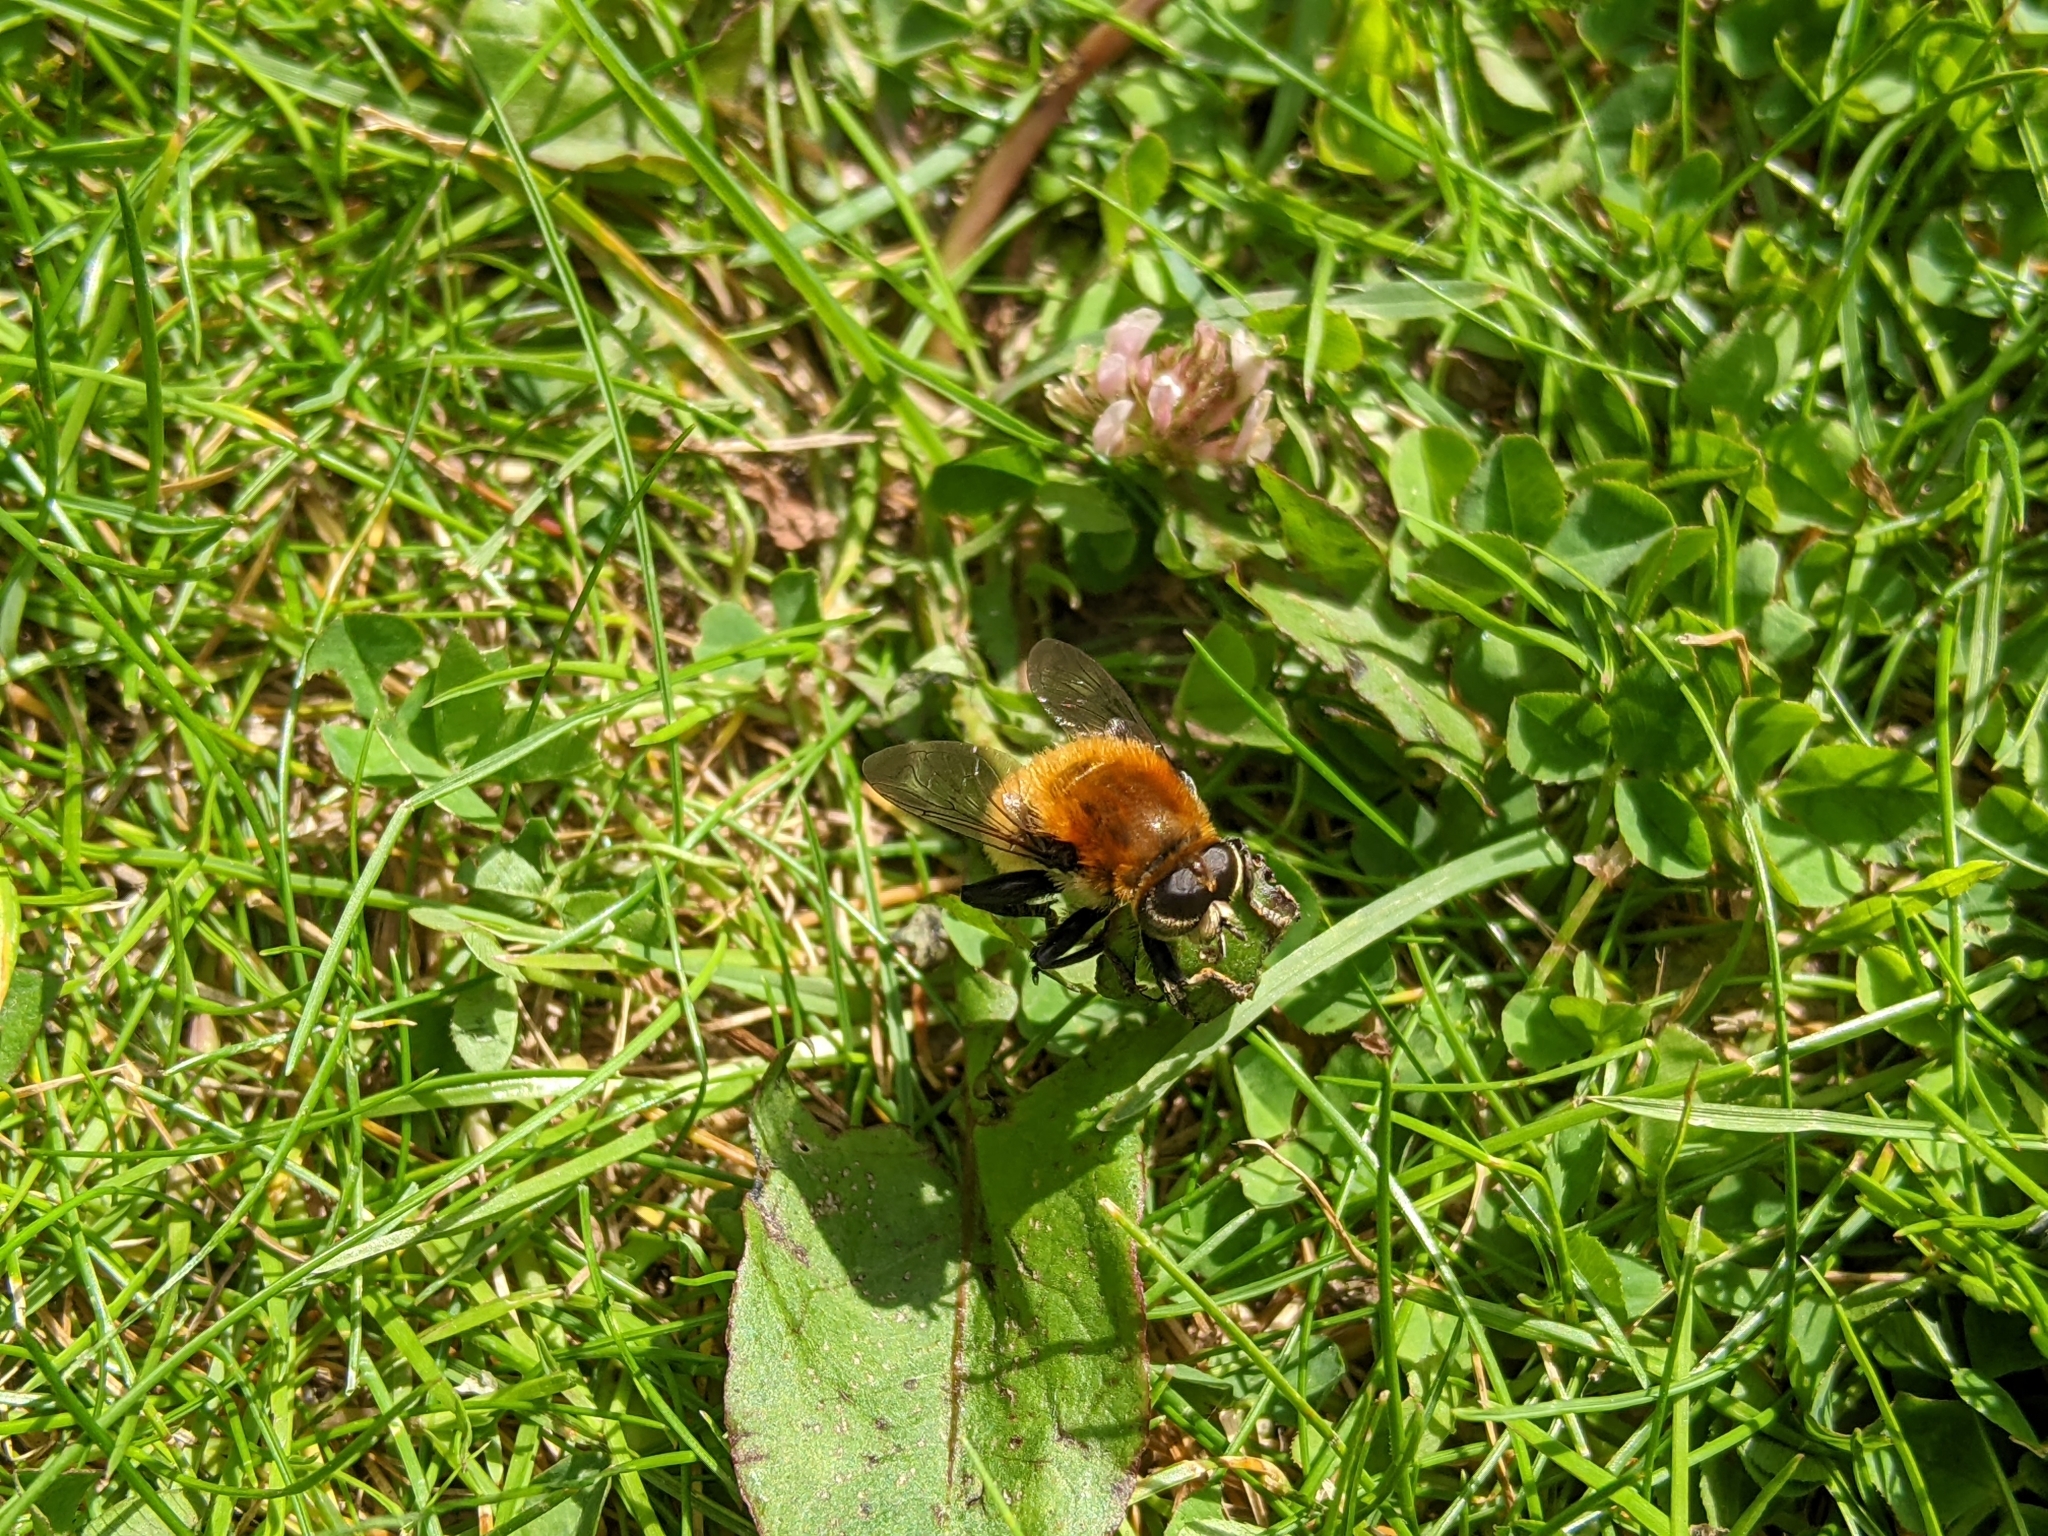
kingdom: Animalia
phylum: Arthropoda
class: Insecta
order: Diptera
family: Syrphidae
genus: Merodon
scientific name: Merodon equestris
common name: Greater bulb-fly
